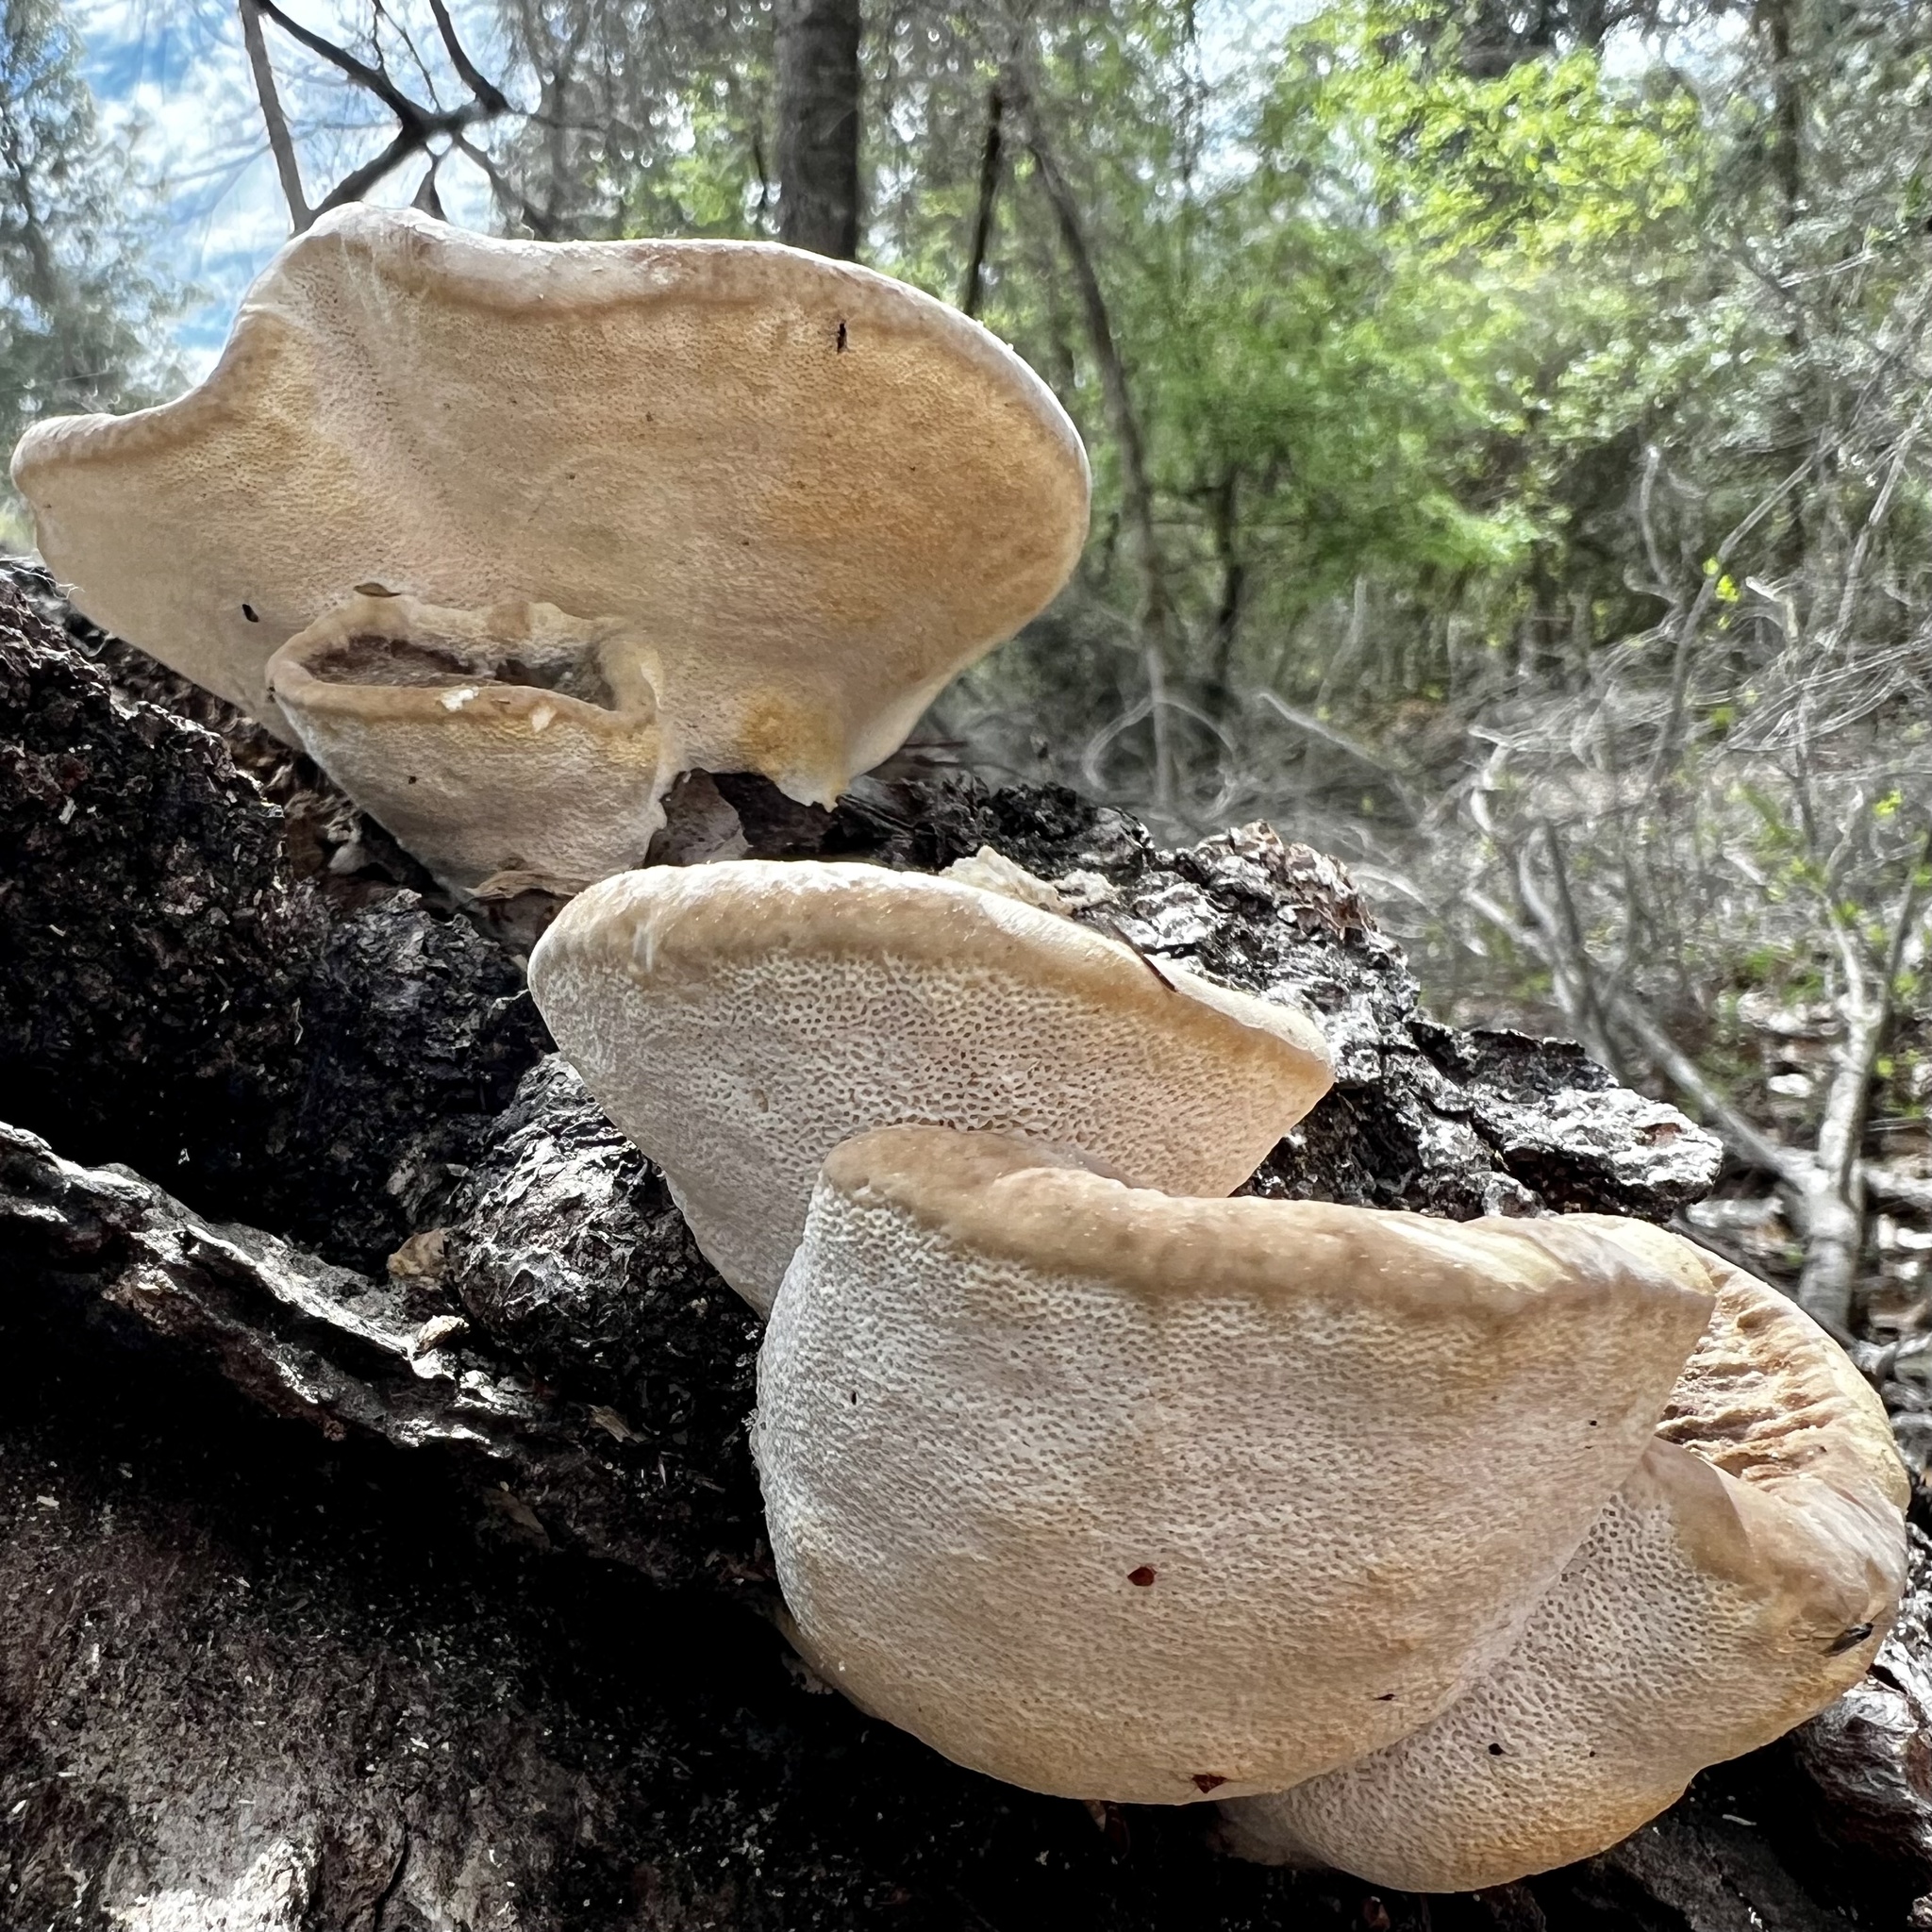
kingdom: Fungi
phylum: Basidiomycota
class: Agaricomycetes
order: Polyporales
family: Polyporaceae
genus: Trametes
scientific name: Trametes lactinea
